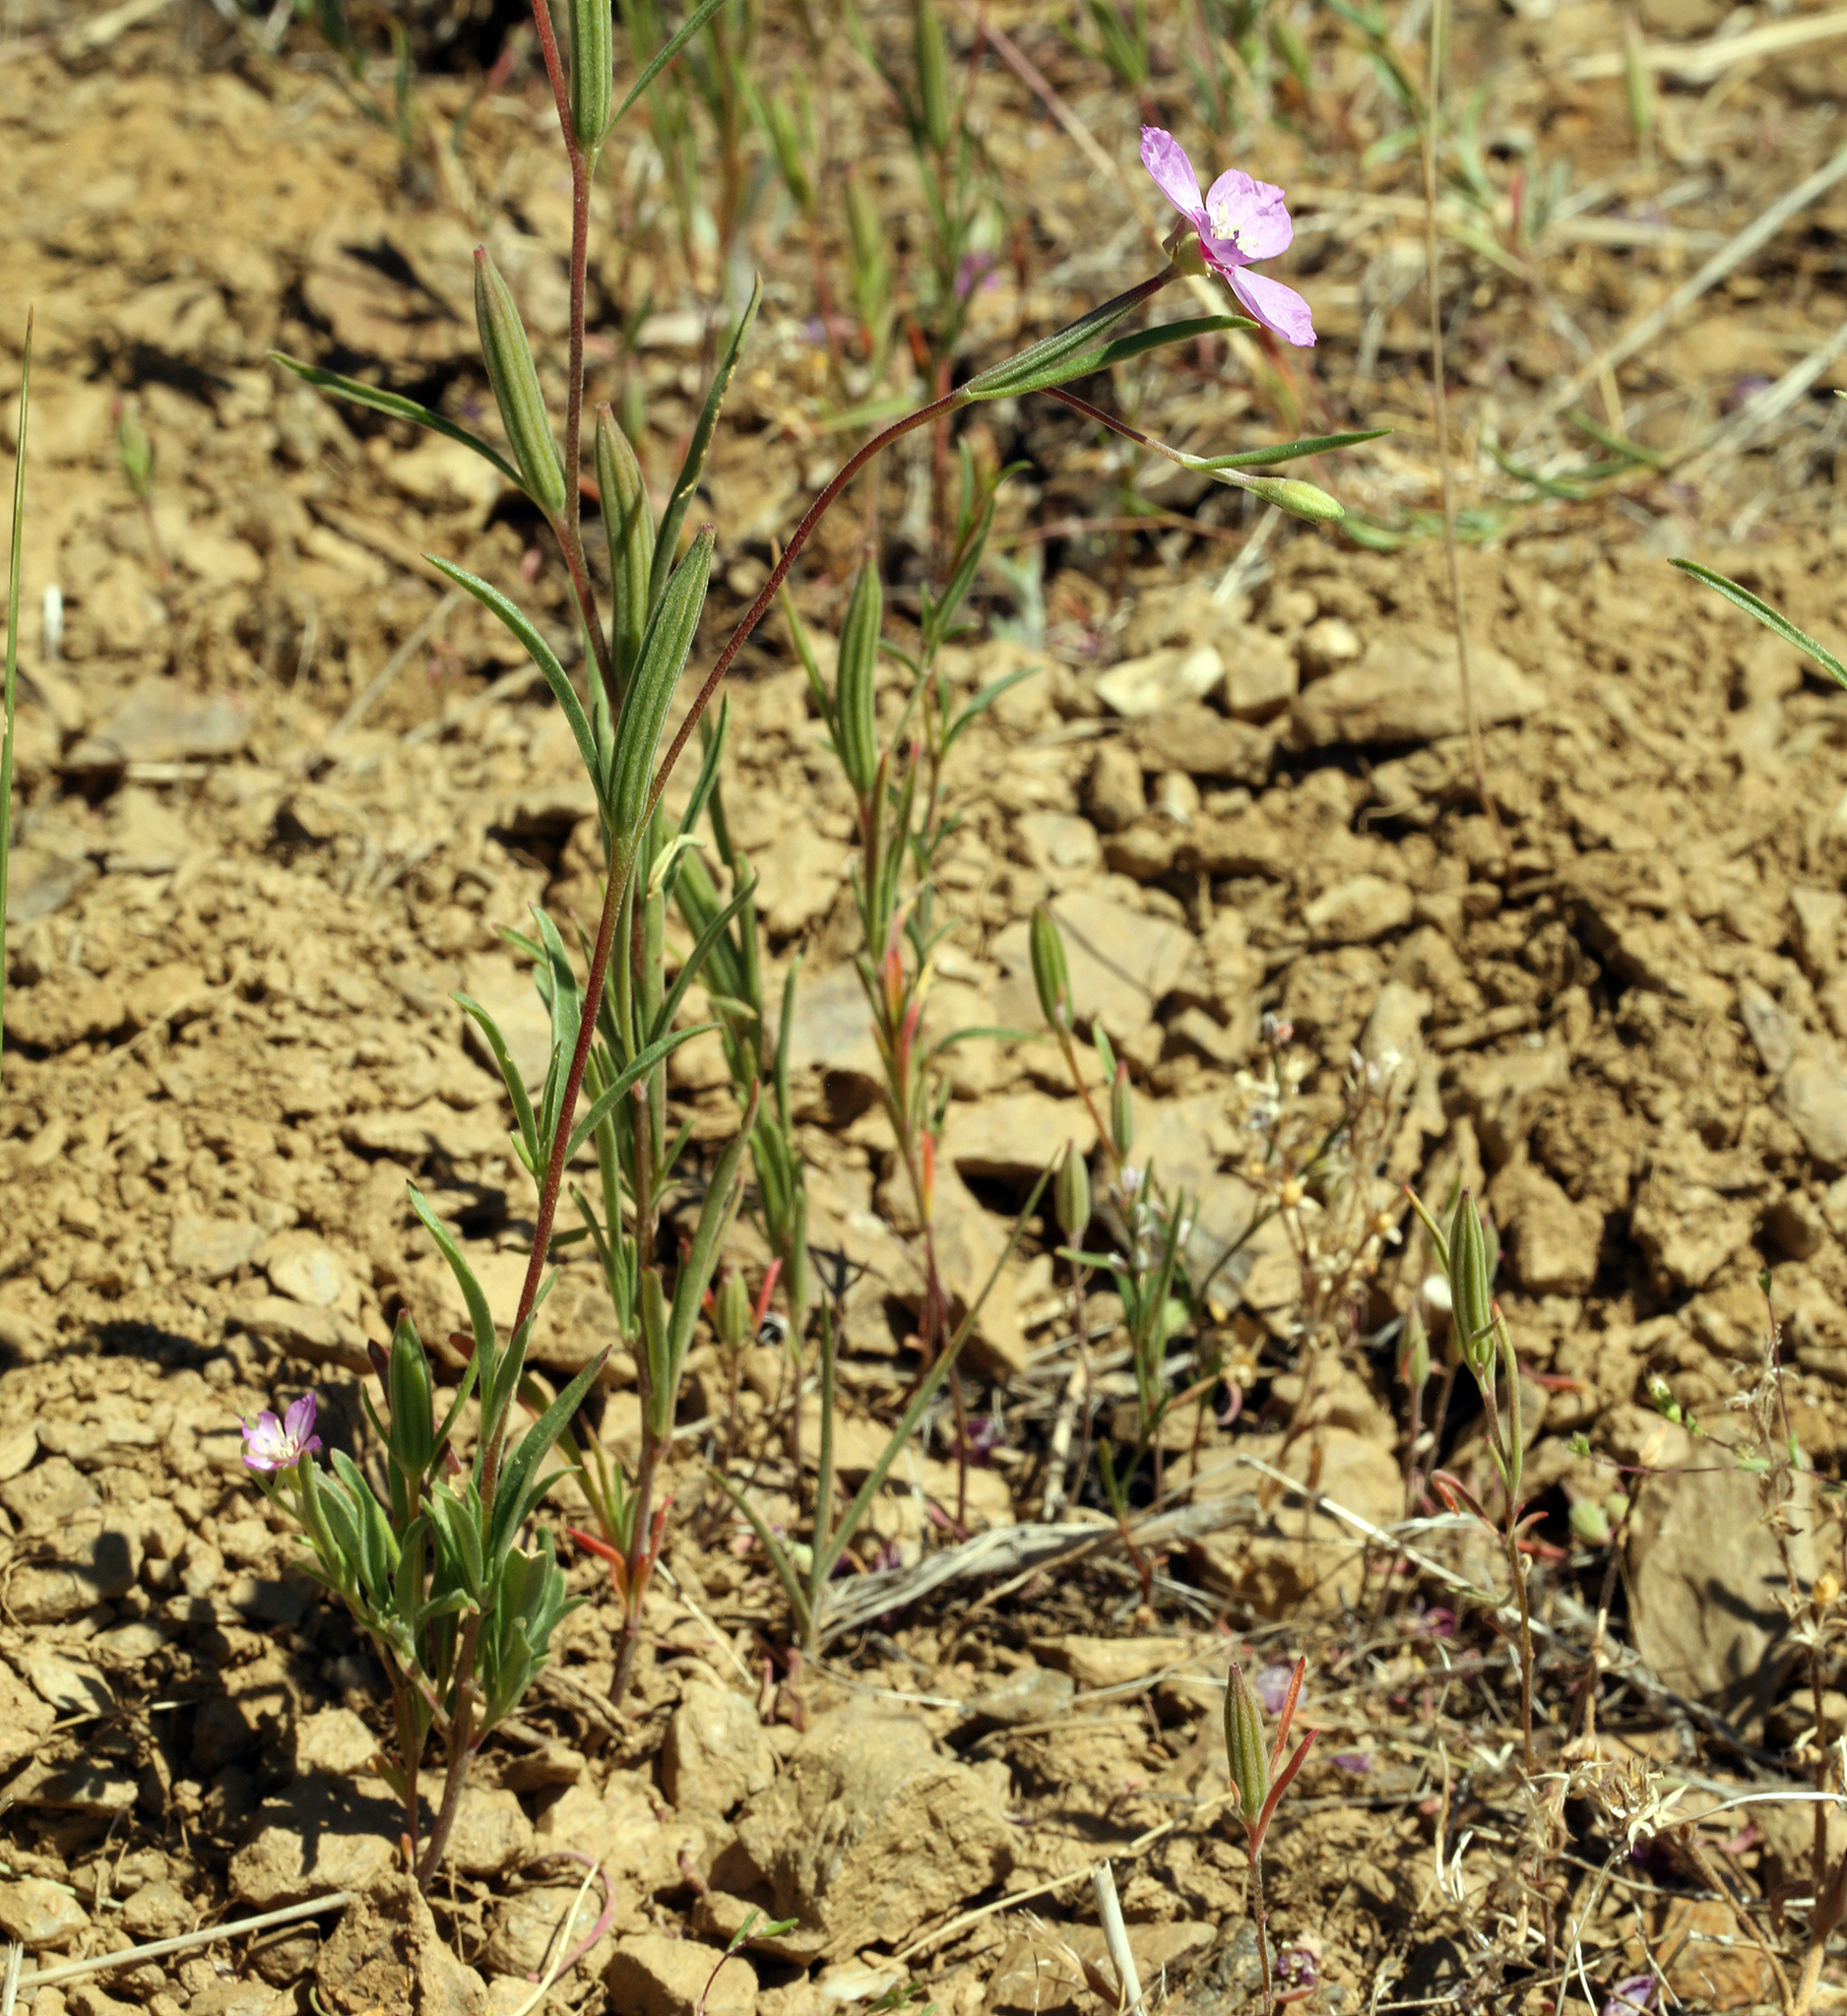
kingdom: Plantae
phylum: Tracheophyta
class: Magnoliopsida
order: Myrtales
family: Onagraceae
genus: Clarkia
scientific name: Clarkia lassenensis
